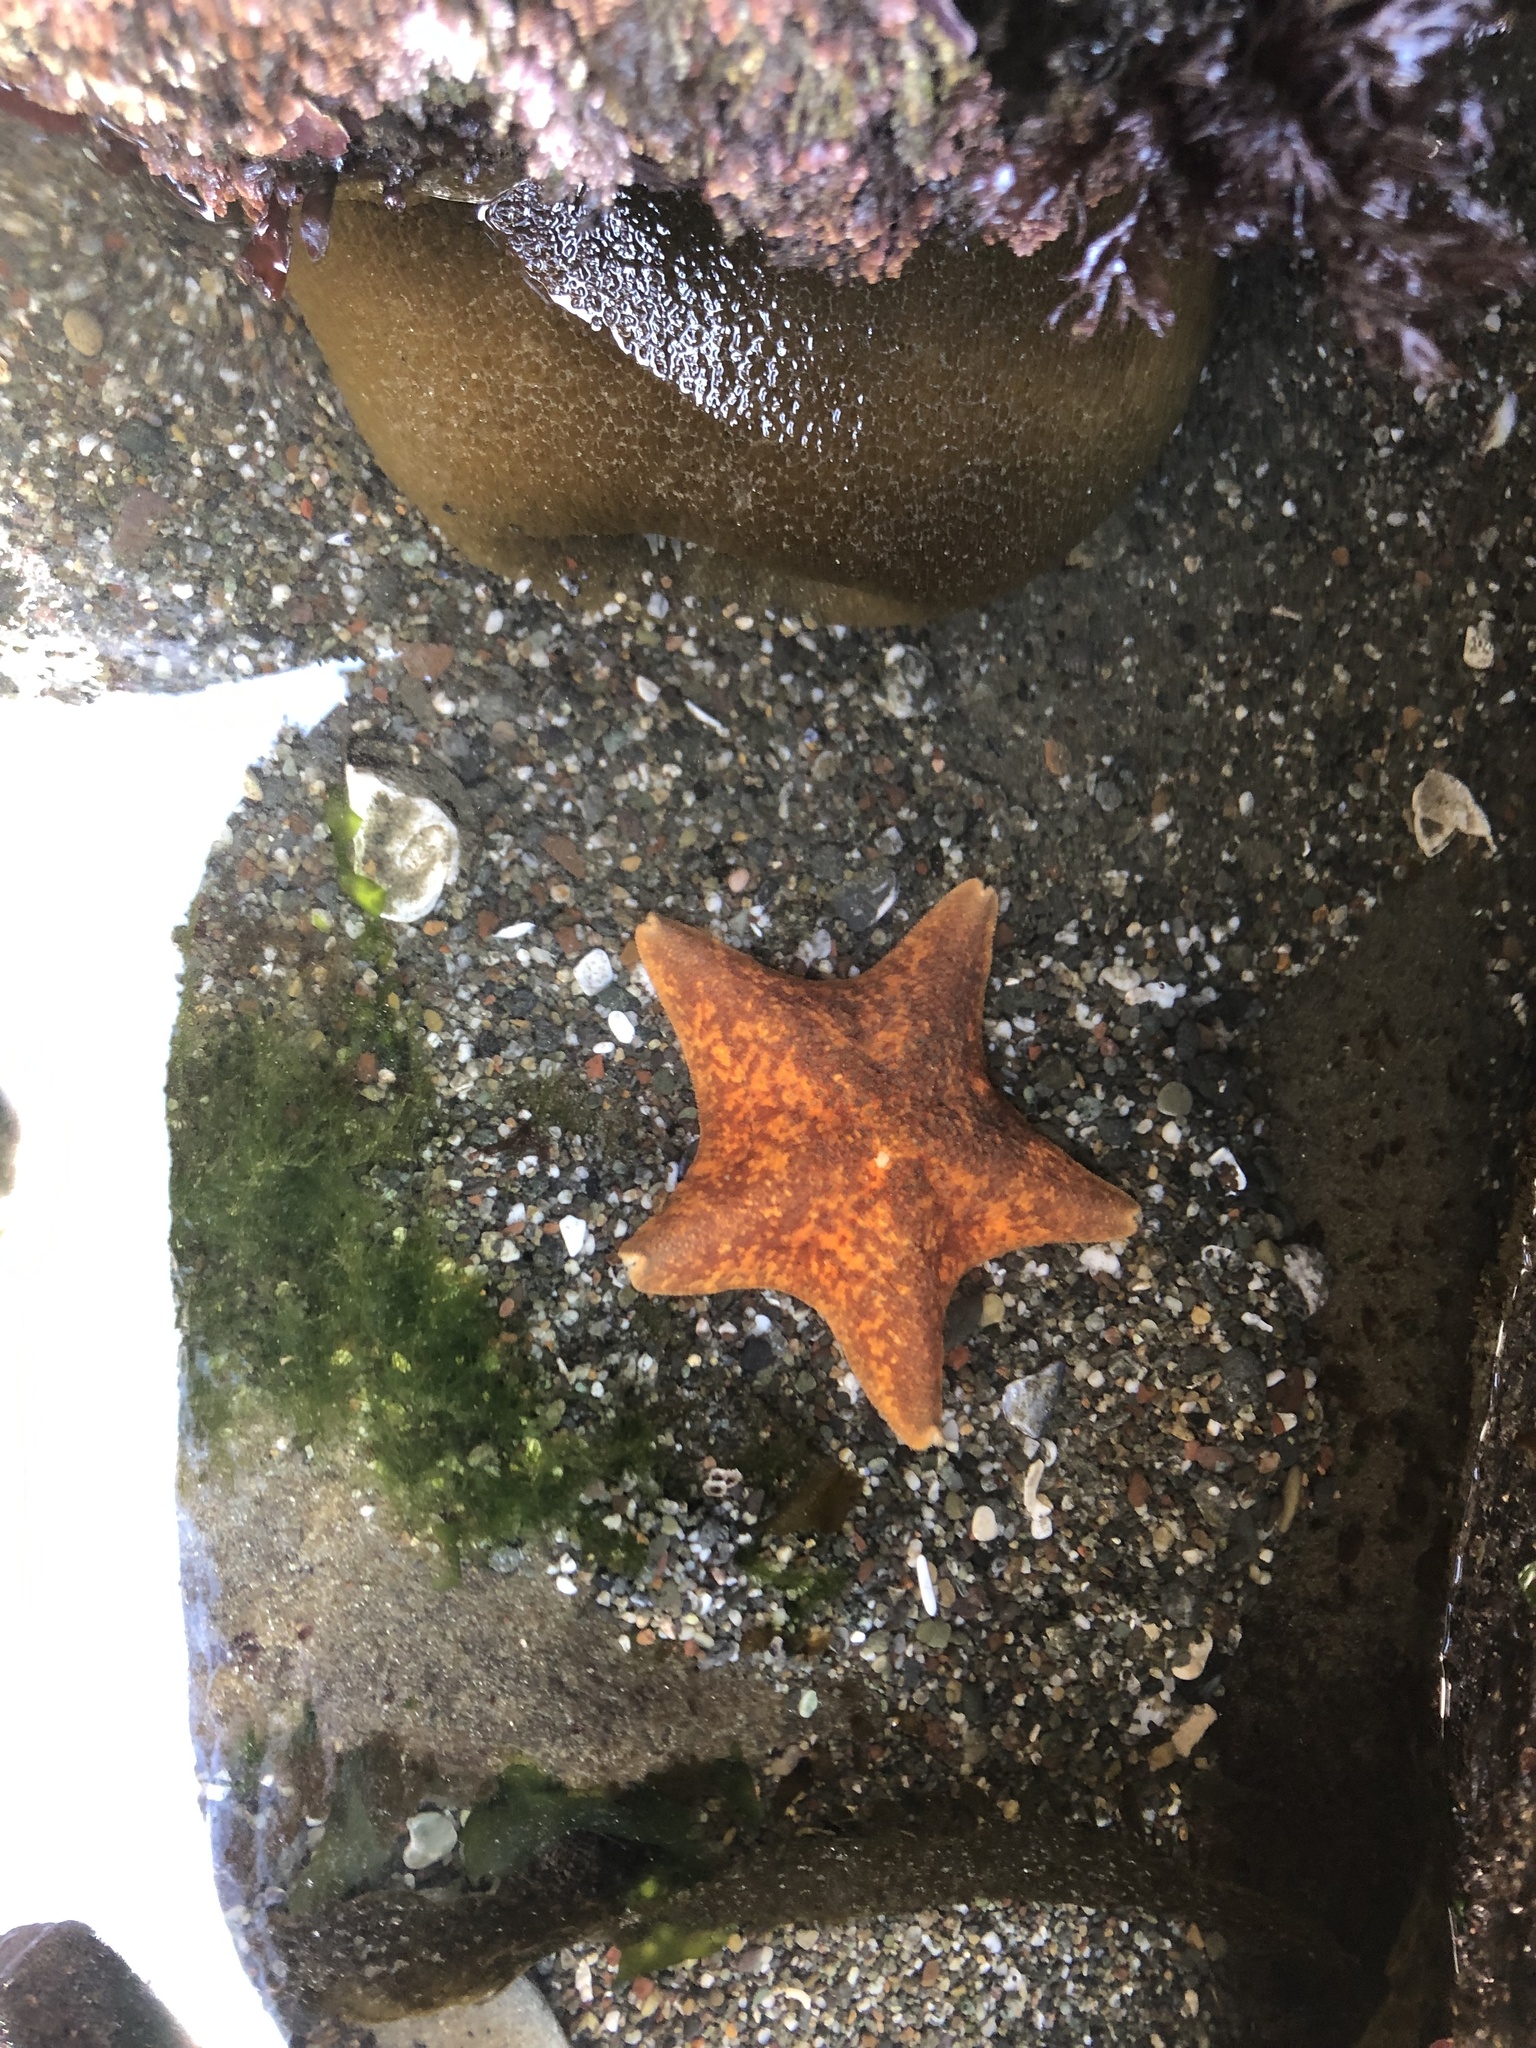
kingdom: Animalia
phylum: Echinodermata
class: Asteroidea
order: Valvatida
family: Asterinidae
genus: Patiria
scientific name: Patiria miniata
